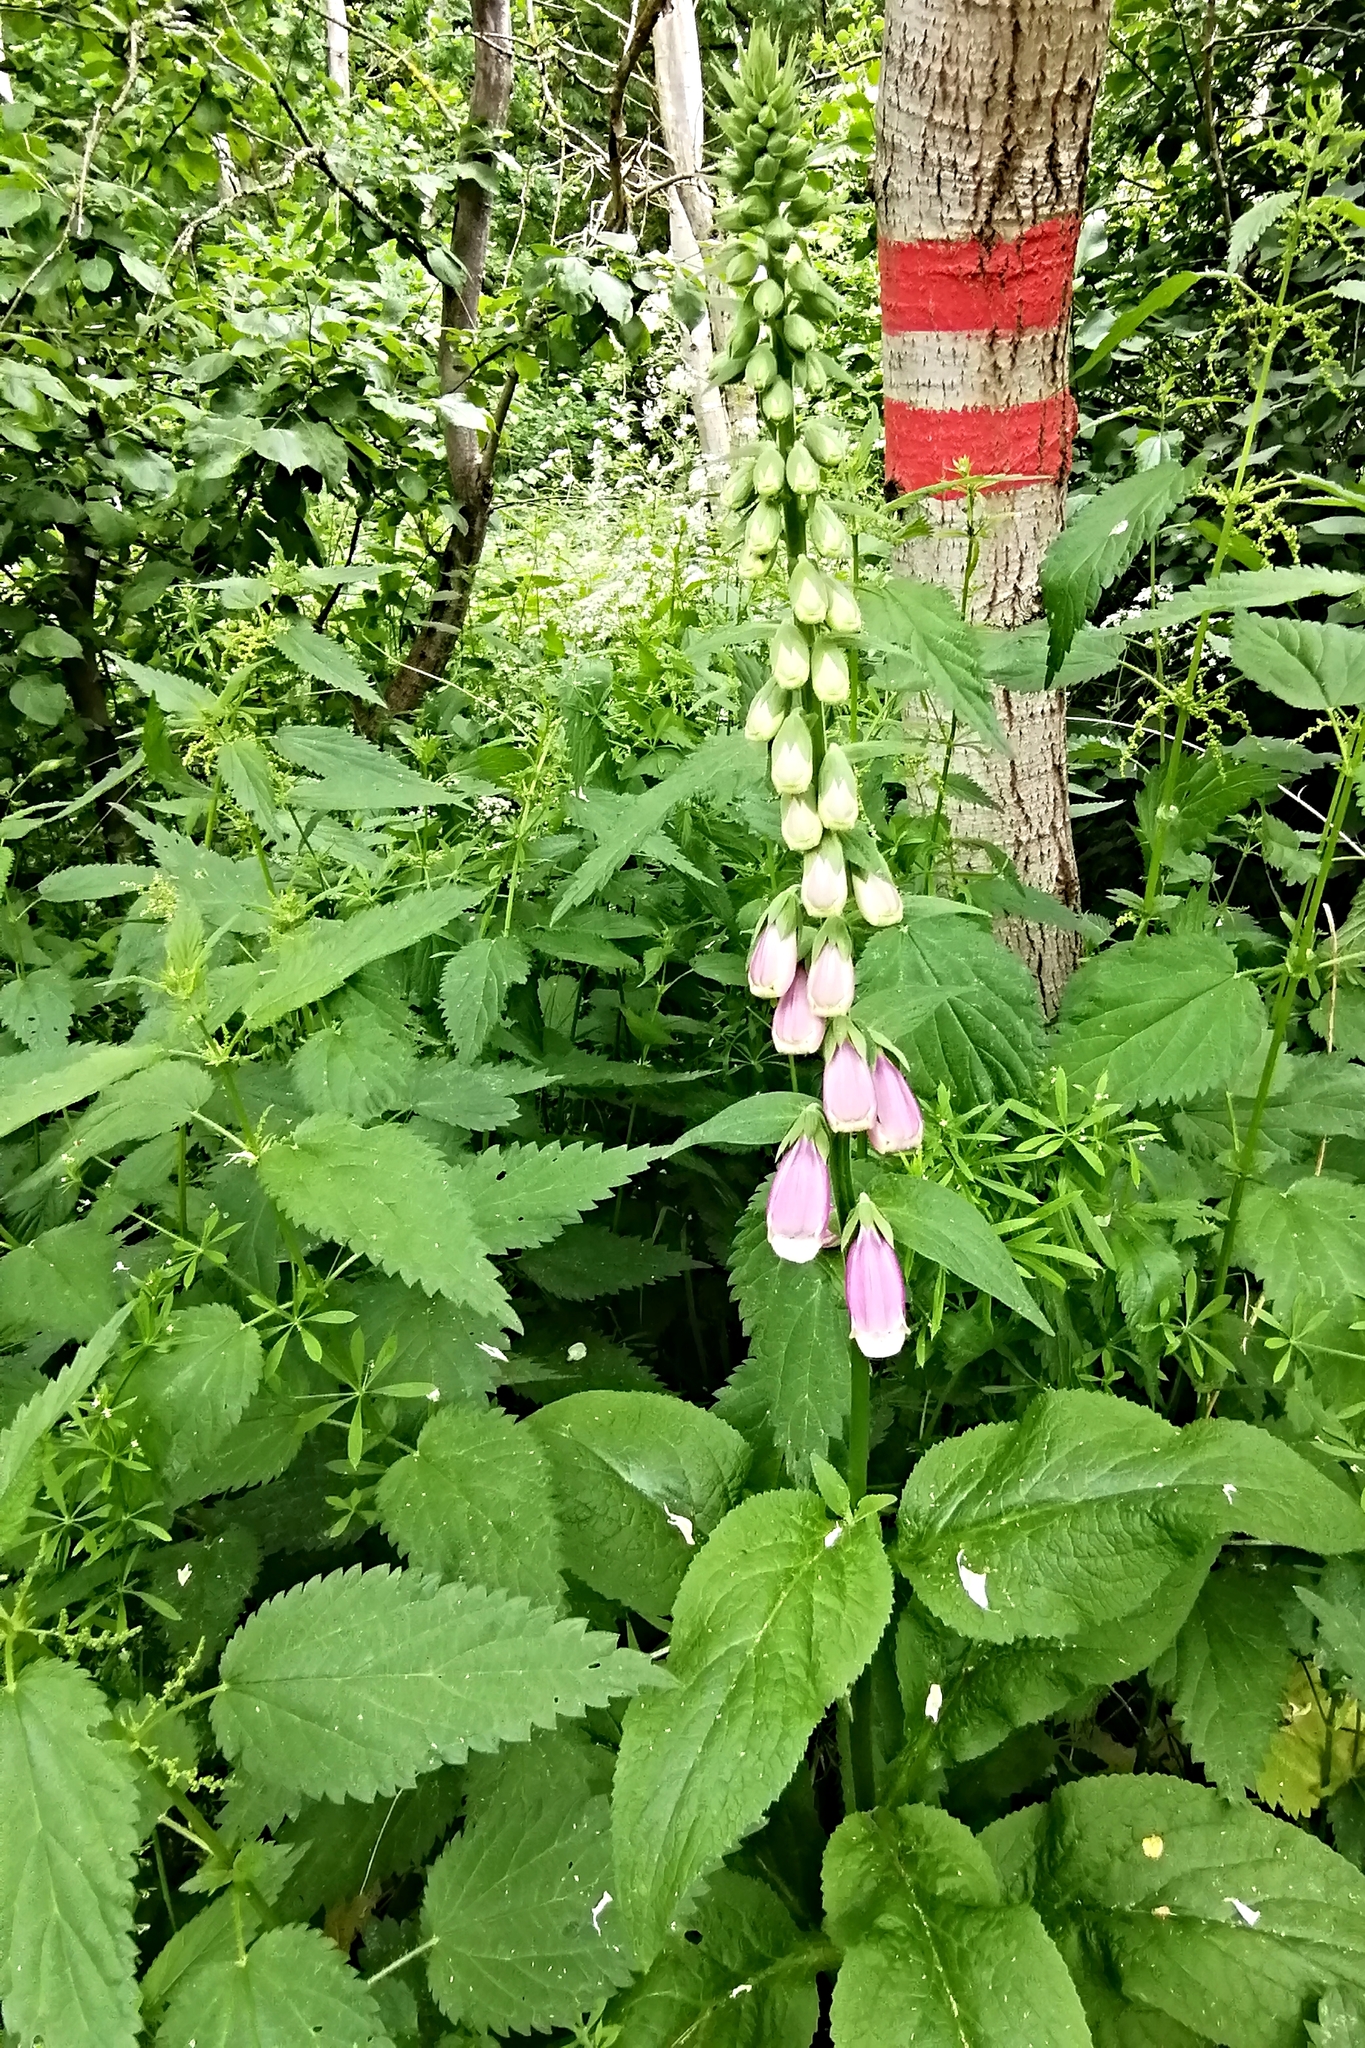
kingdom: Plantae
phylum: Tracheophyta
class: Magnoliopsida
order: Lamiales
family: Plantaginaceae
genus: Digitalis
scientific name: Digitalis purpurea
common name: Foxglove
